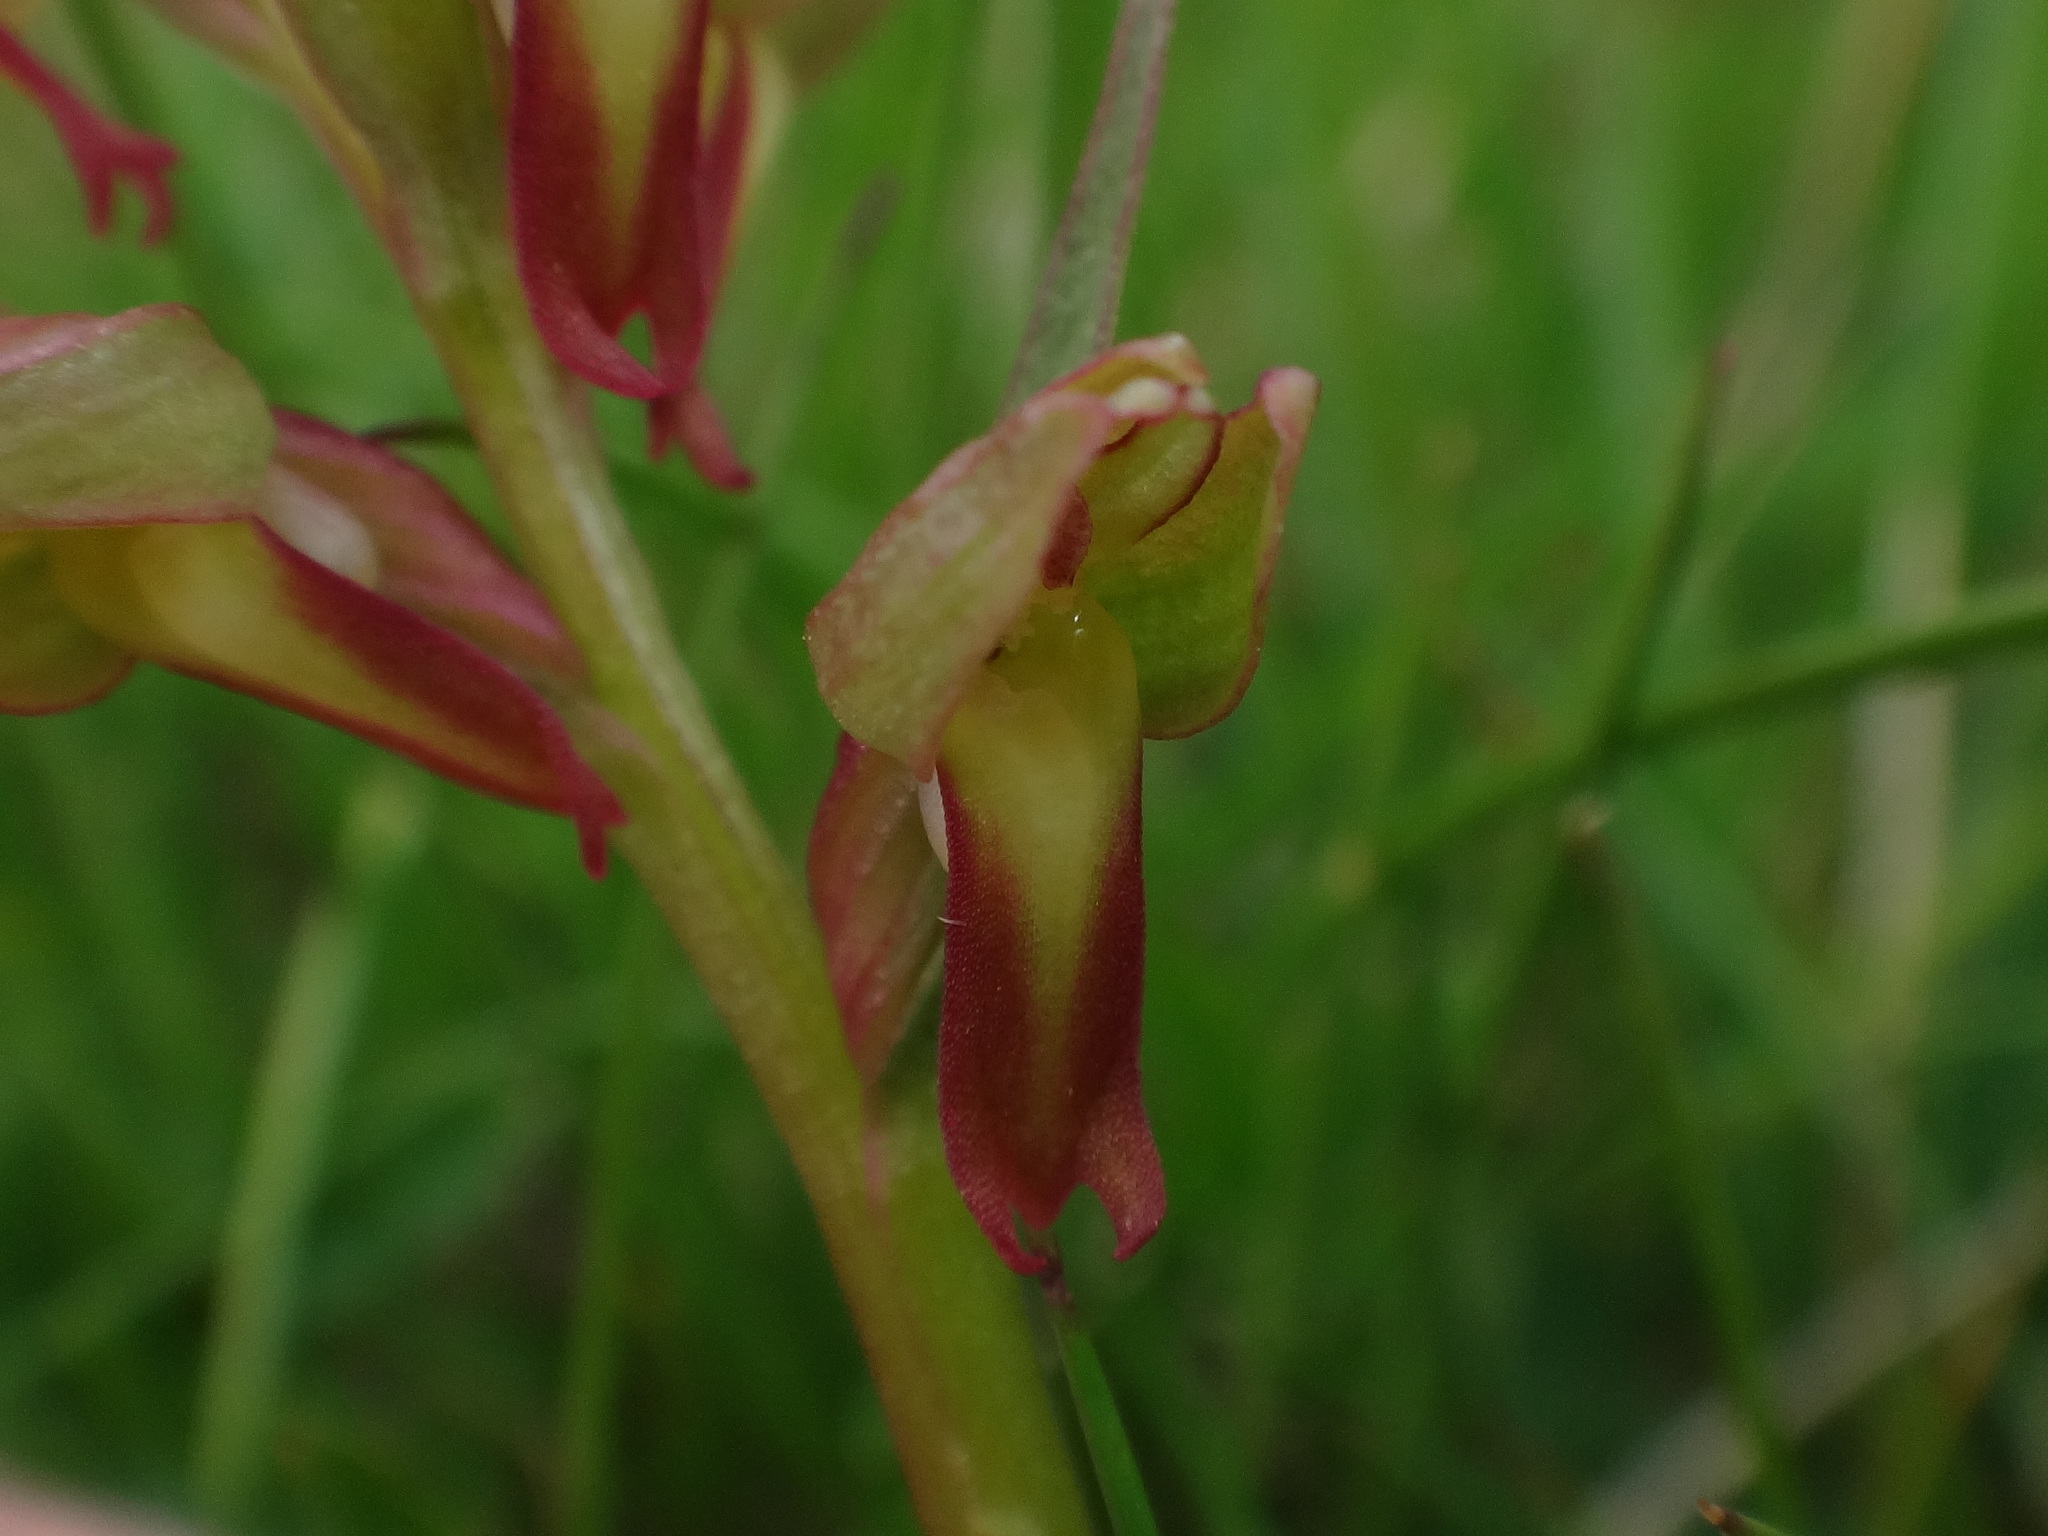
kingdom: Plantae
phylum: Tracheophyta
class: Liliopsida
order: Asparagales
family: Orchidaceae
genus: Dactylorhiza
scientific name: Dactylorhiza viridis
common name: Longbract frog orchid
